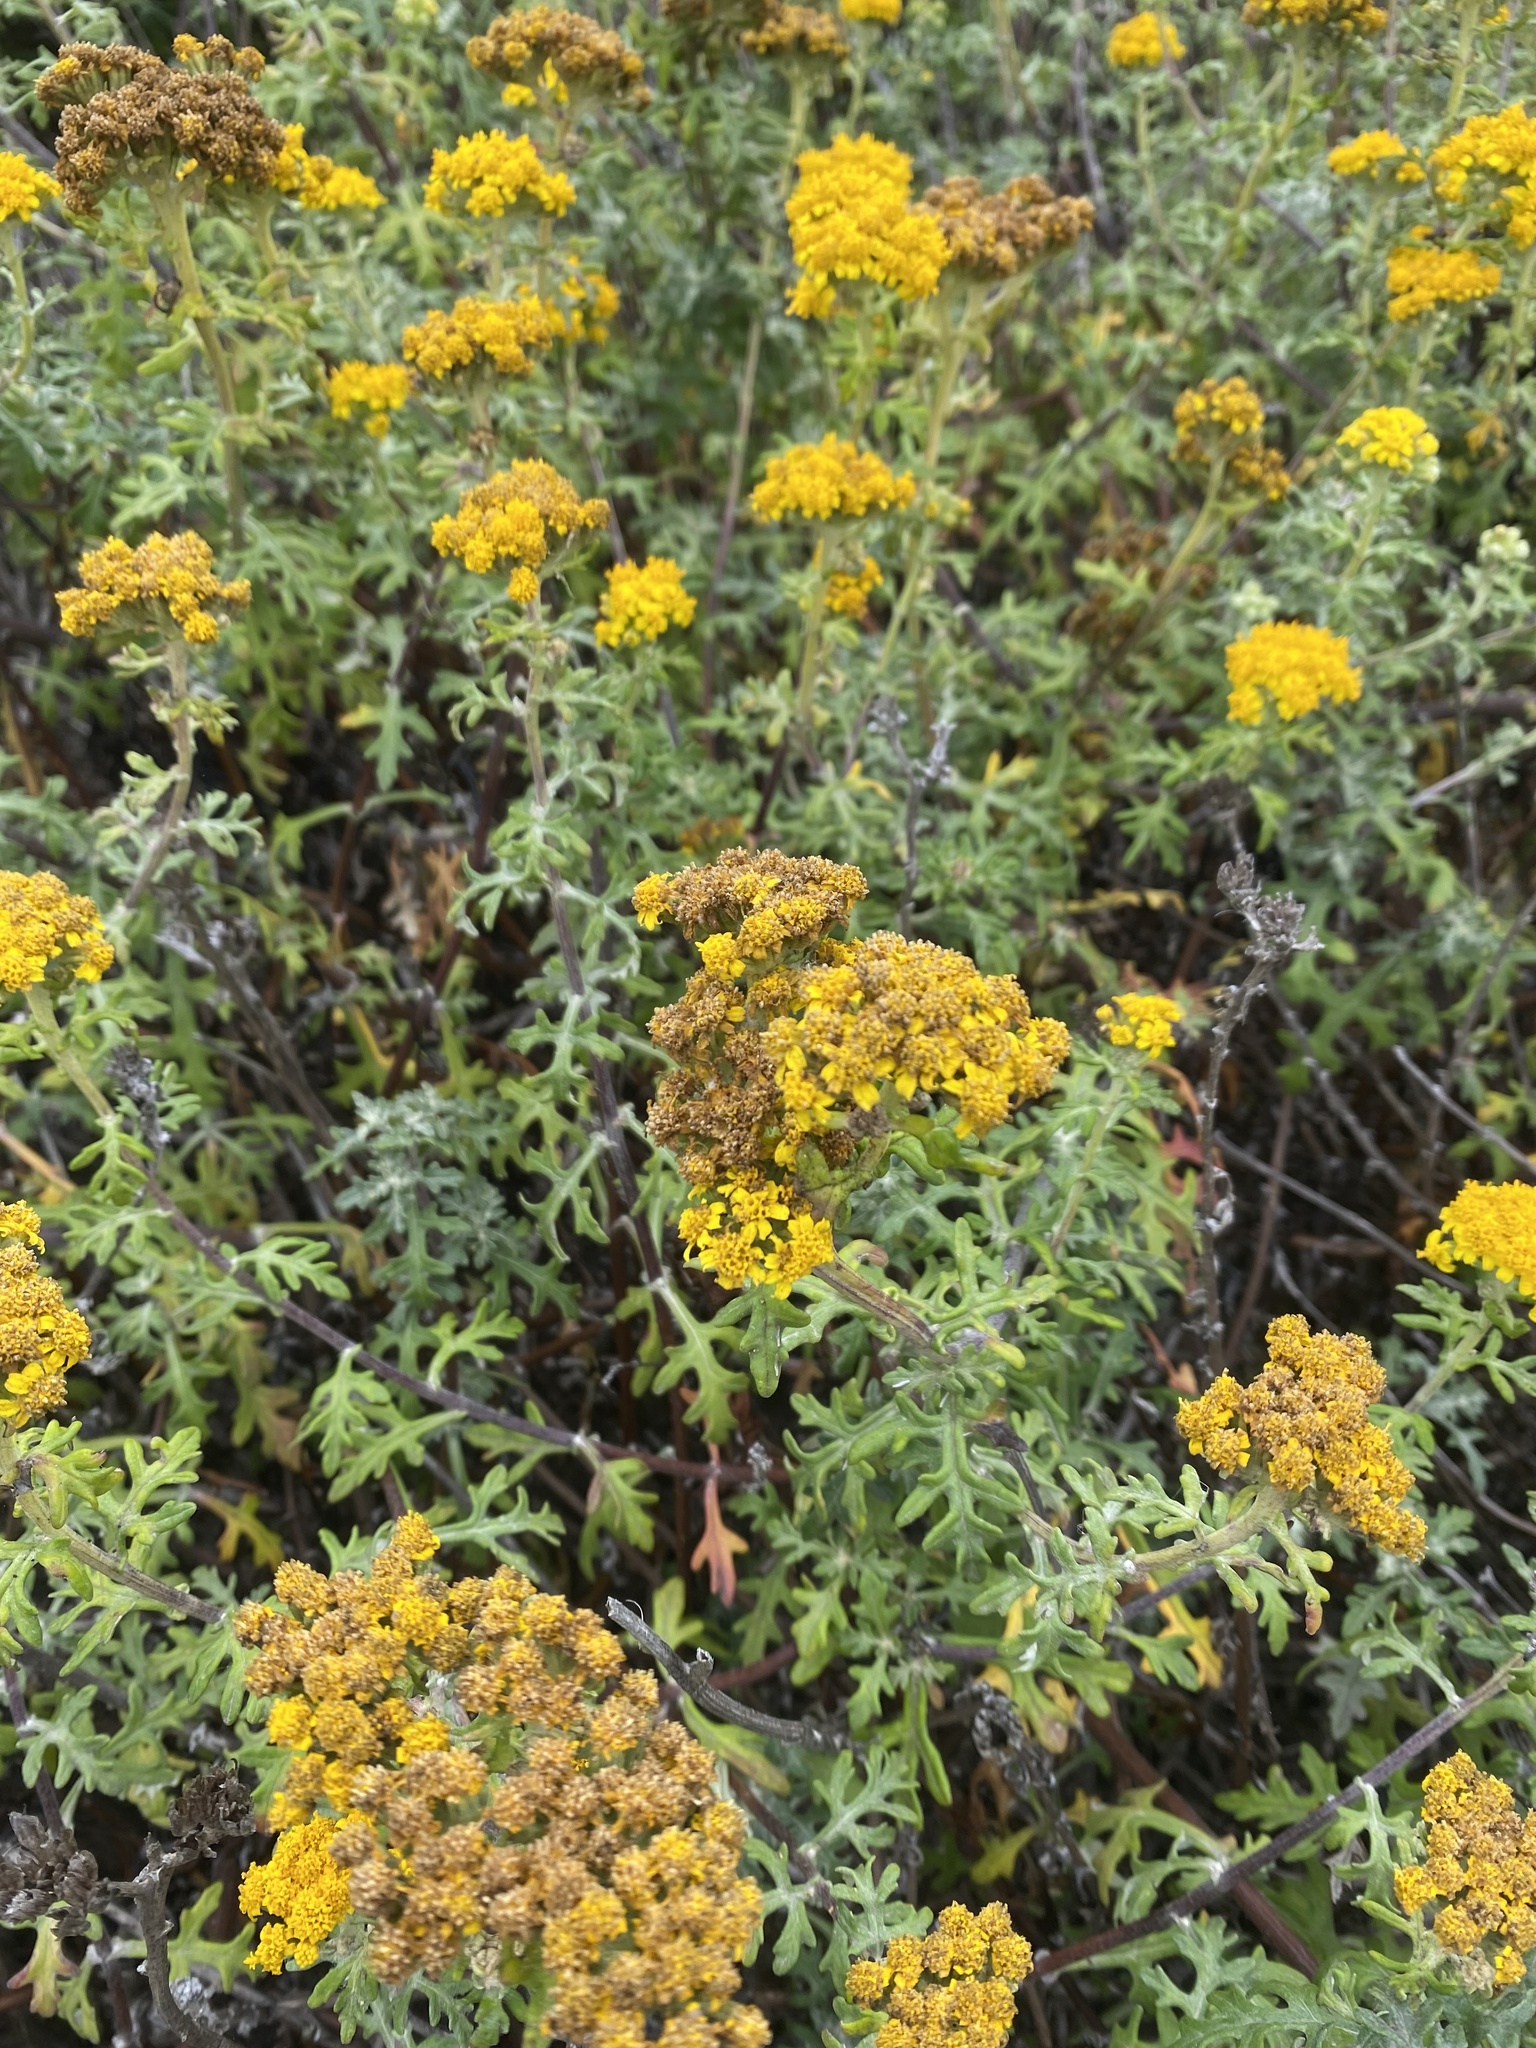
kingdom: Plantae
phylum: Tracheophyta
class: Magnoliopsida
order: Asterales
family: Asteraceae
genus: Eriophyllum
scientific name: Eriophyllum staechadifolium
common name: Lizardtail
